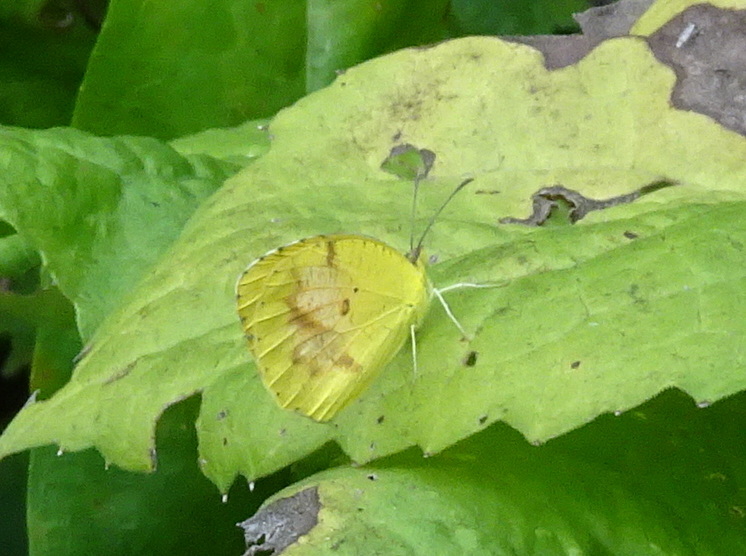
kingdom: Animalia
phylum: Arthropoda
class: Insecta
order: Lepidoptera
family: Pieridae
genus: Abaeis
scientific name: Abaeis nicippe
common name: Sleepy orange
